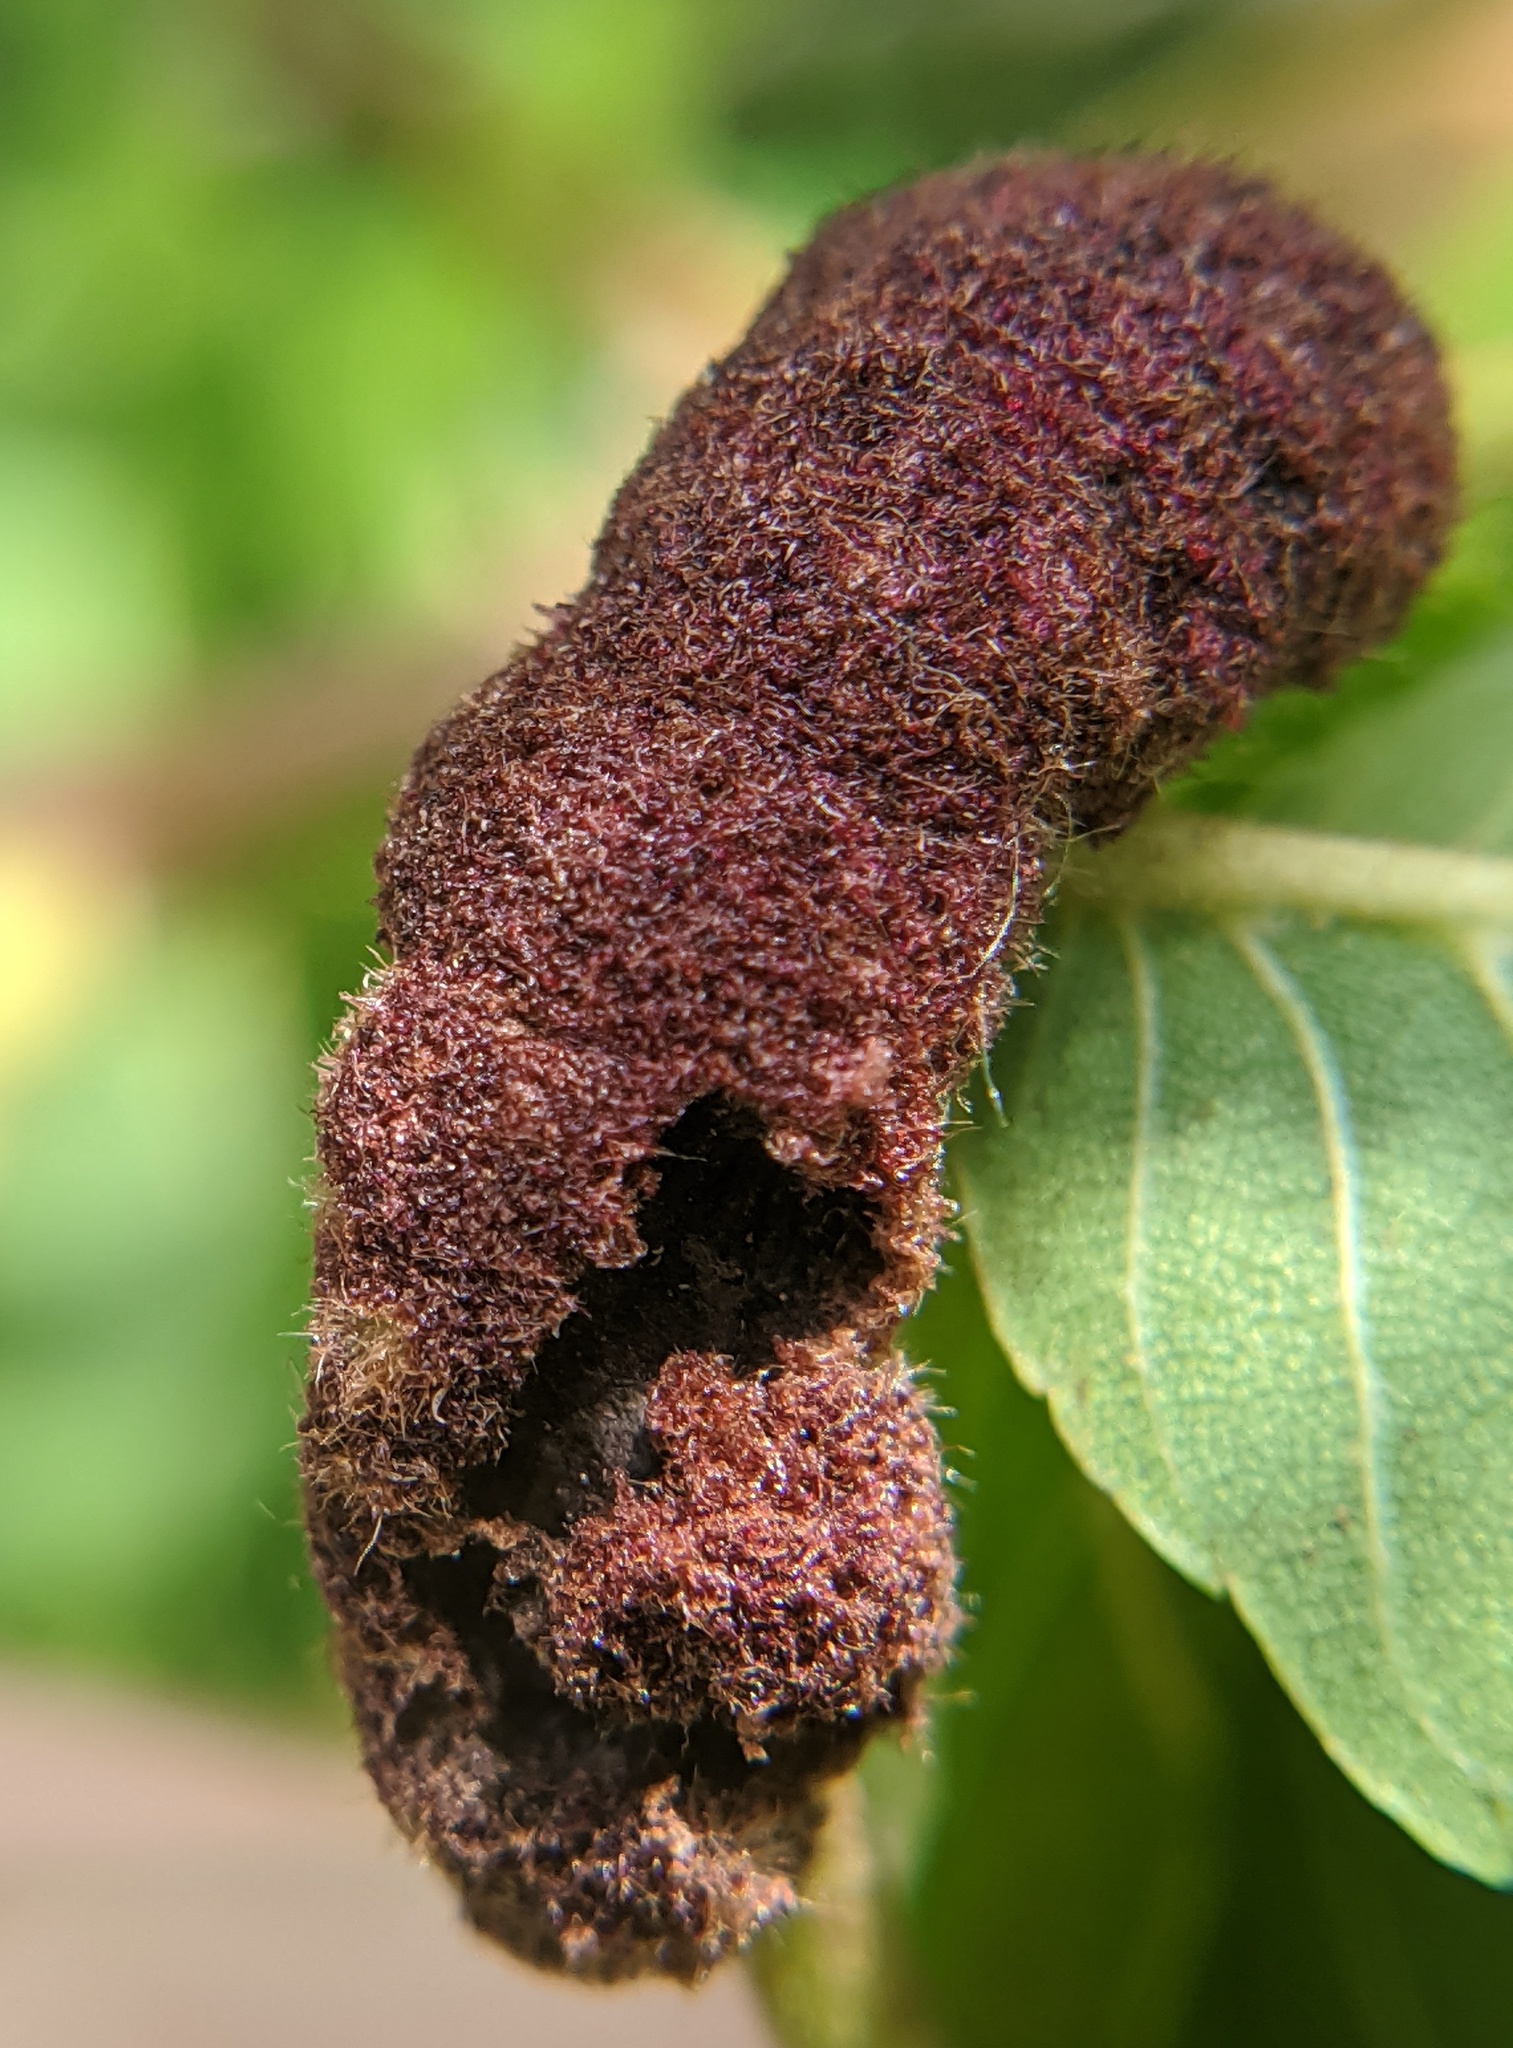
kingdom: Animalia
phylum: Arthropoda
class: Arachnida
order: Trombidiformes
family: Eriophyidae
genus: Aceria
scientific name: Aceria
